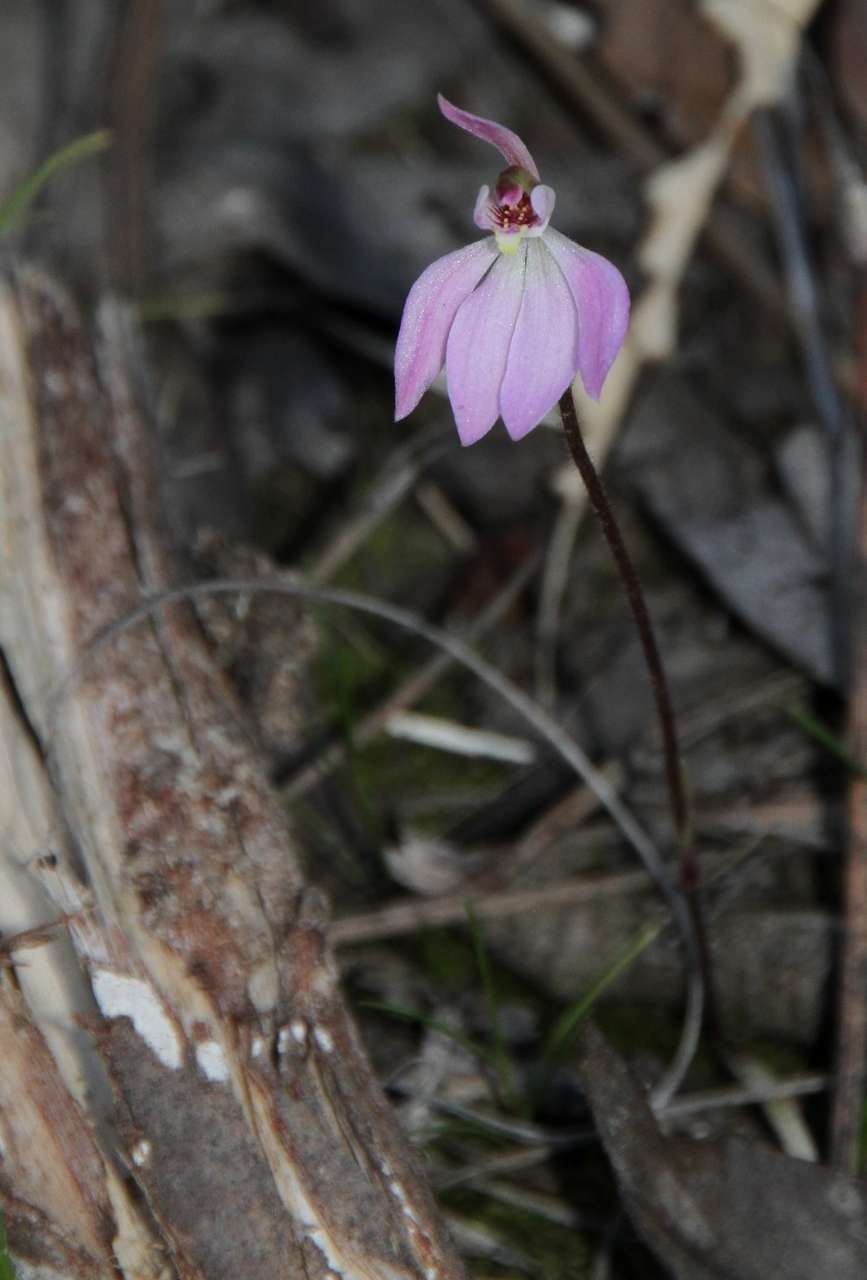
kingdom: Plantae
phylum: Tracheophyta
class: Liliopsida
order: Asparagales
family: Orchidaceae
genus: Caladenia
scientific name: Caladenia carnea
